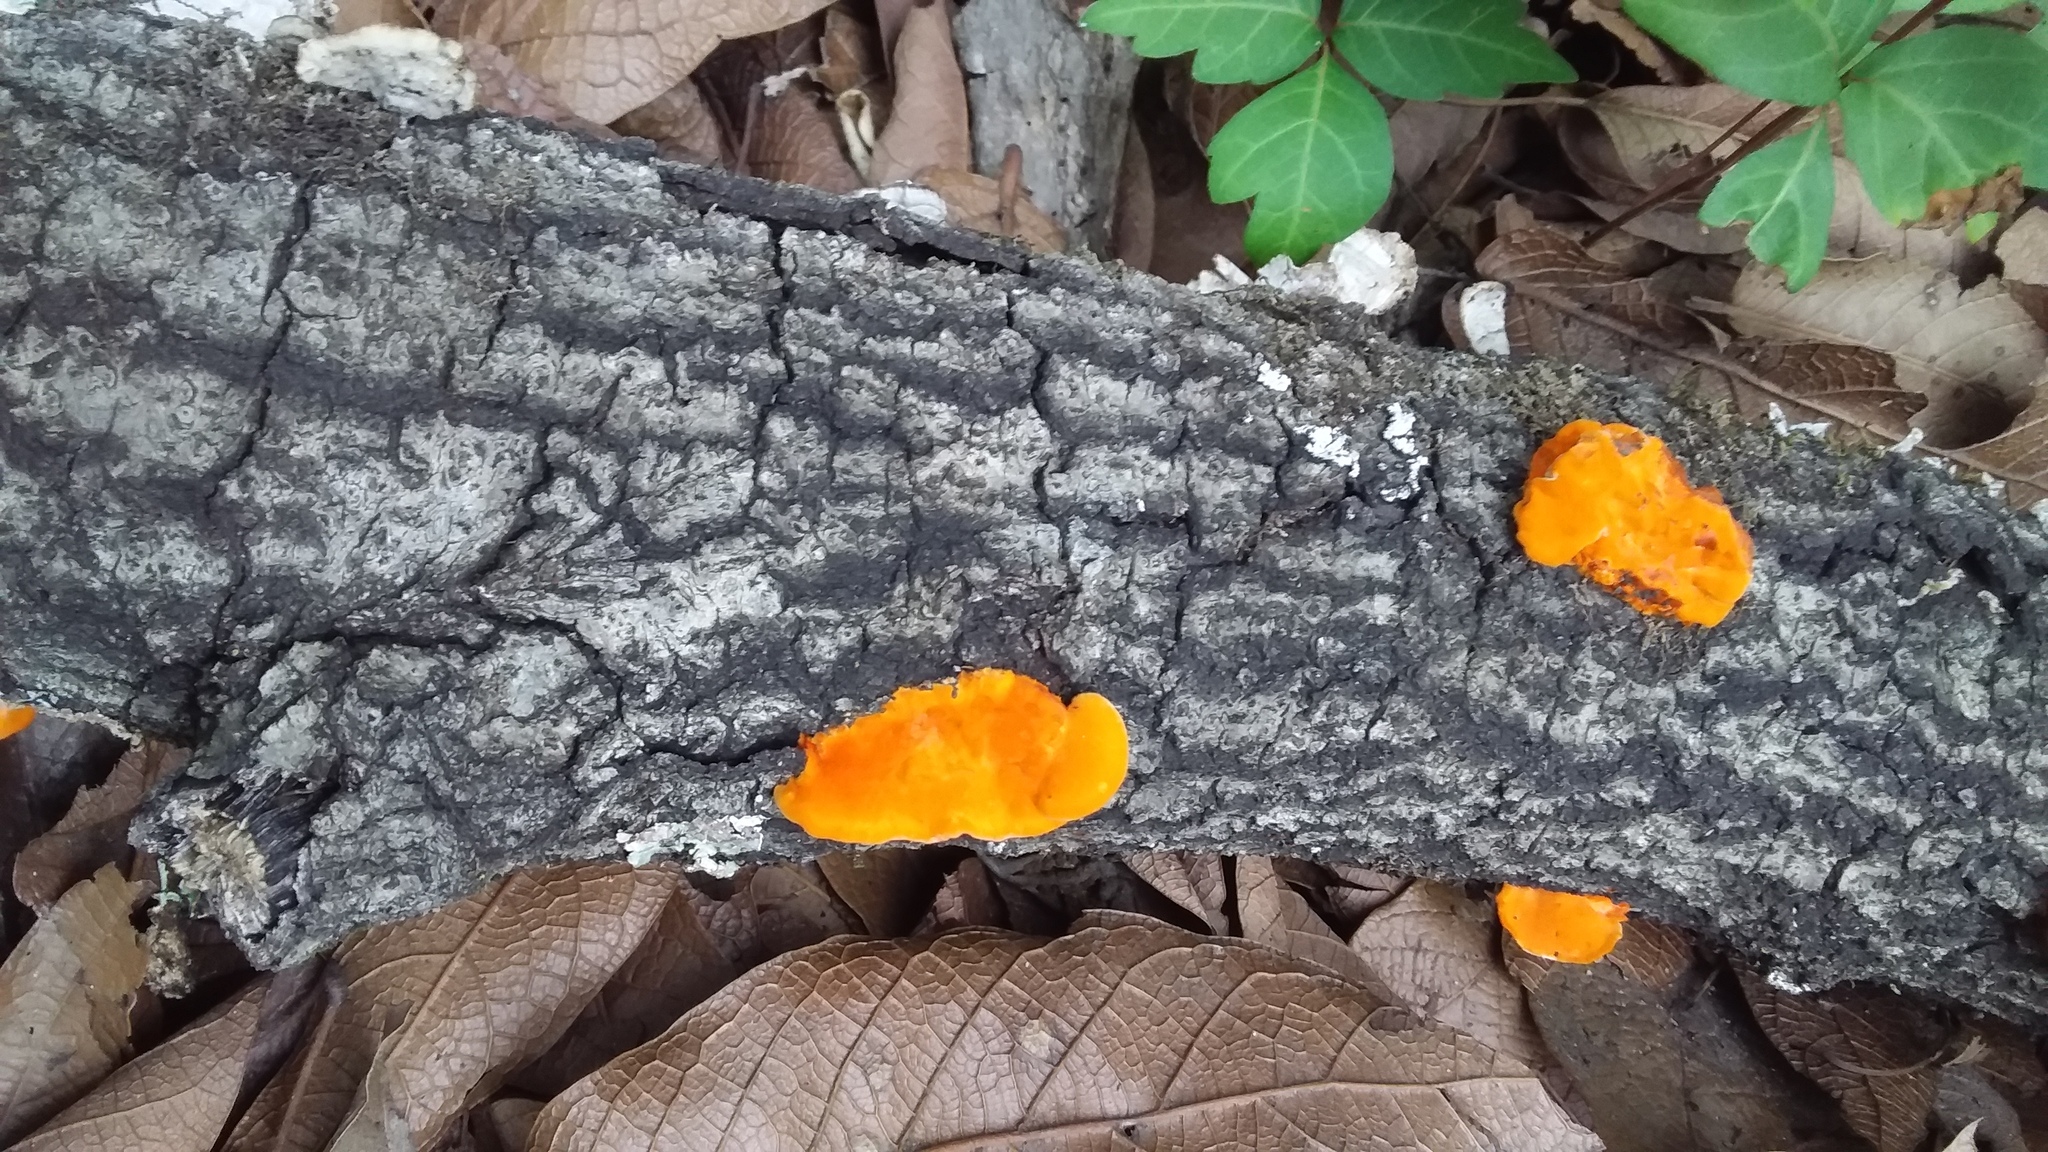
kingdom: Fungi
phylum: Basidiomycota
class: Agaricomycetes
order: Polyporales
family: Polyporaceae
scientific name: Polyporaceae
